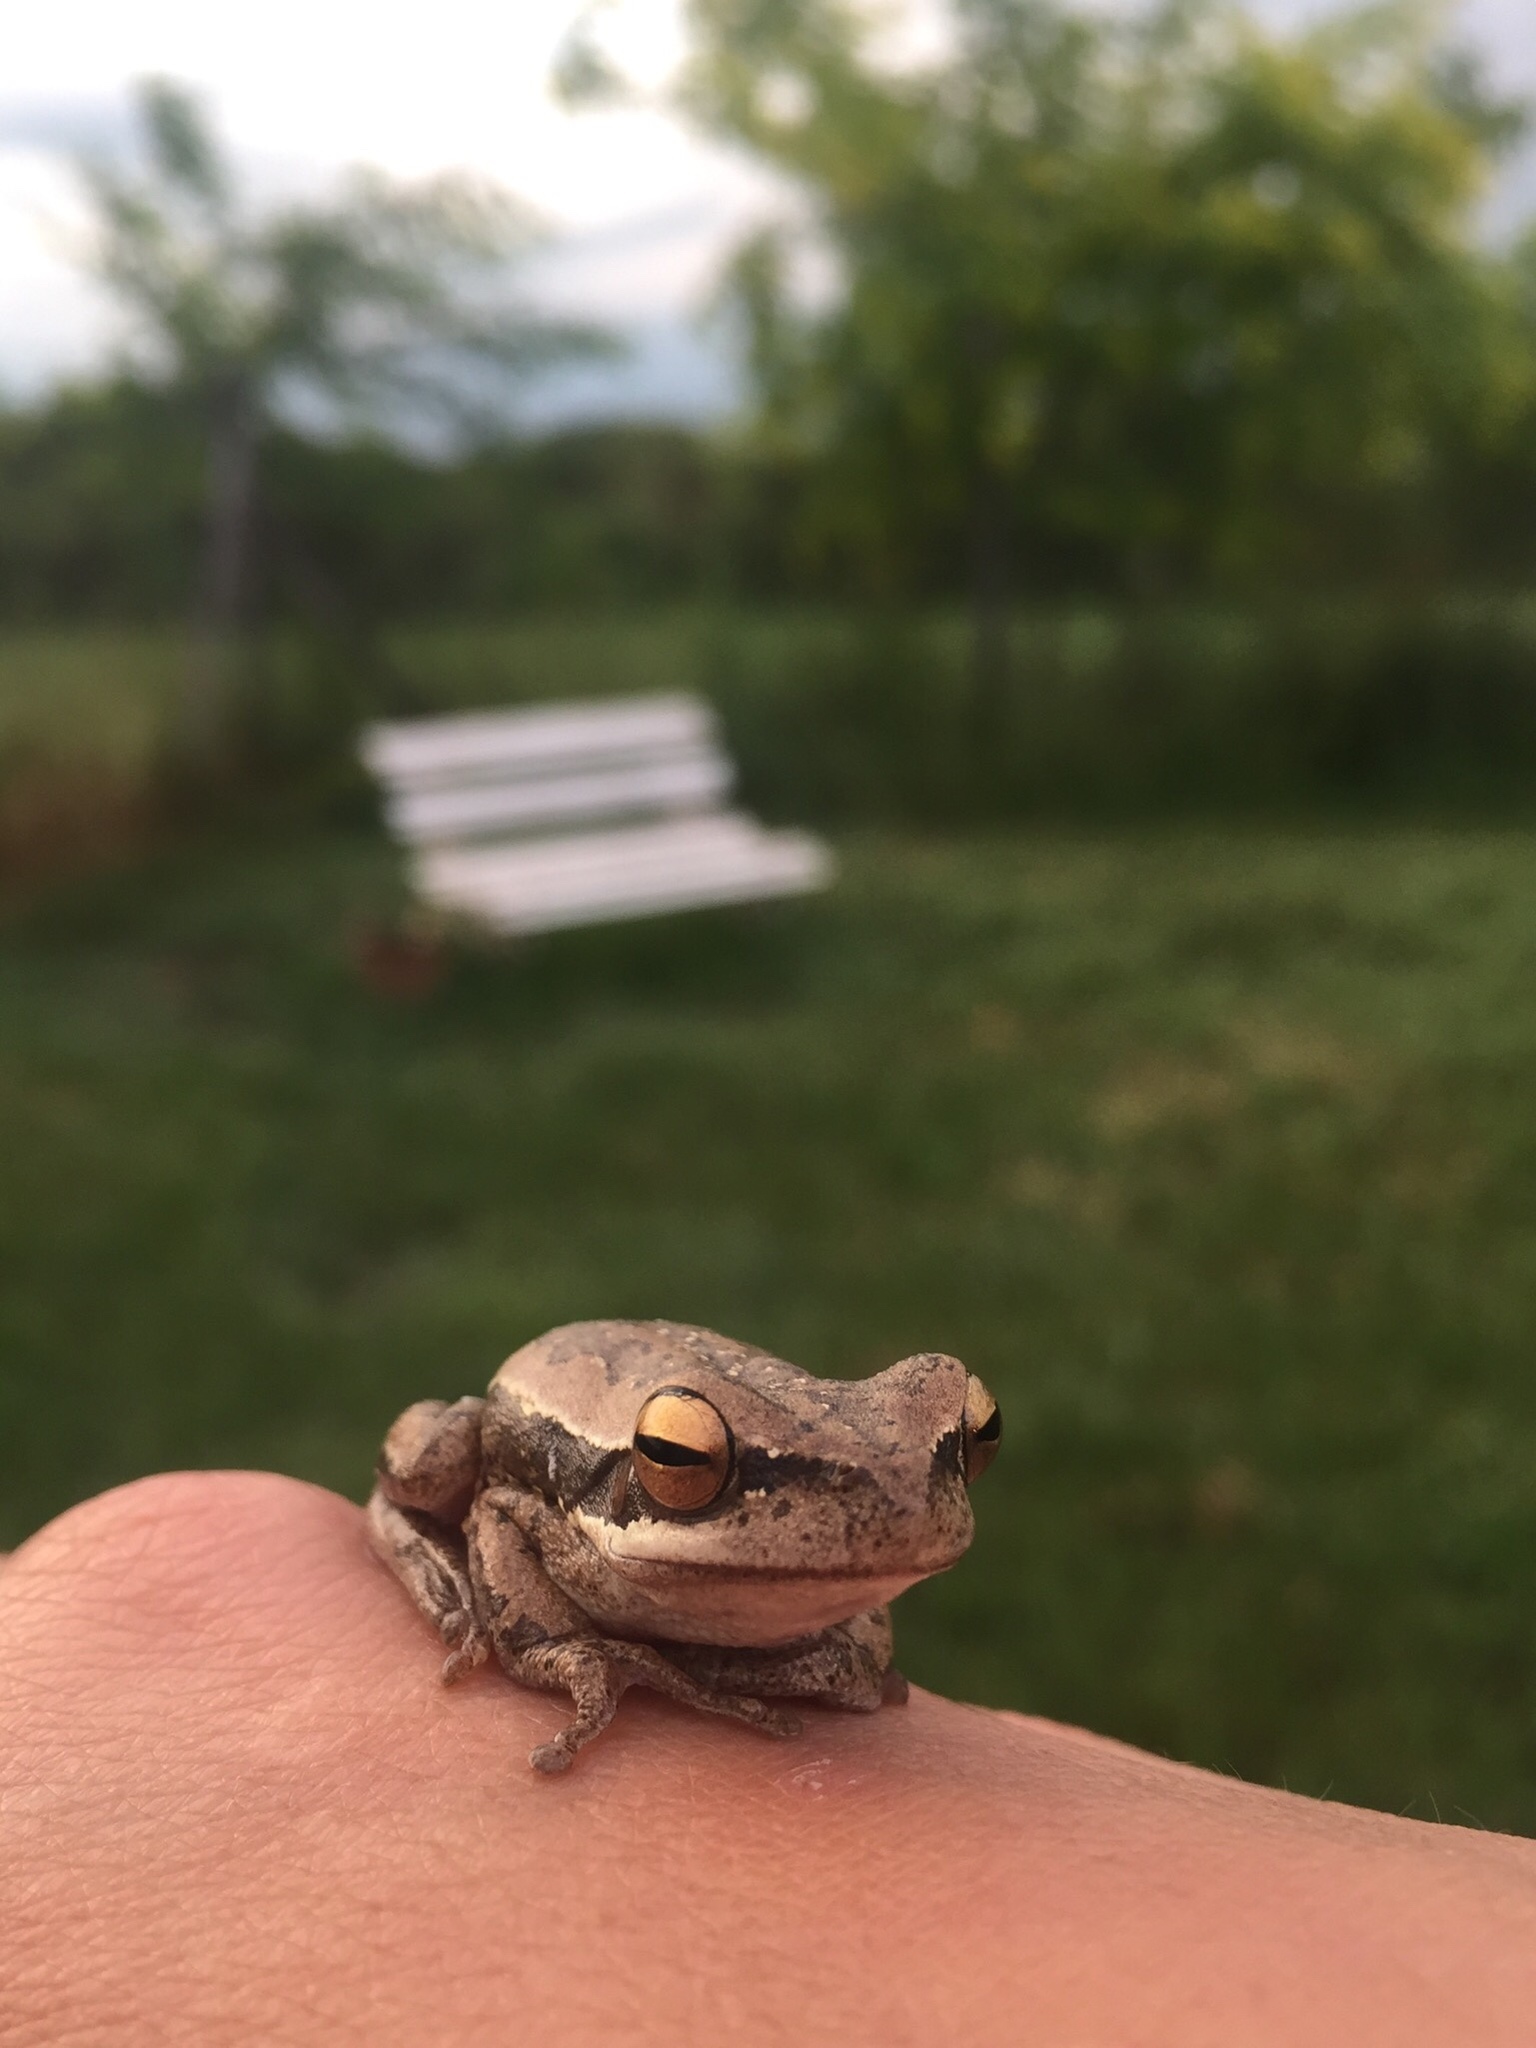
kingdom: Animalia
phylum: Chordata
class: Amphibia
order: Anura
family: Hylidae
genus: Boana
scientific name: Boana pulchella
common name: Montevideo treefrog
